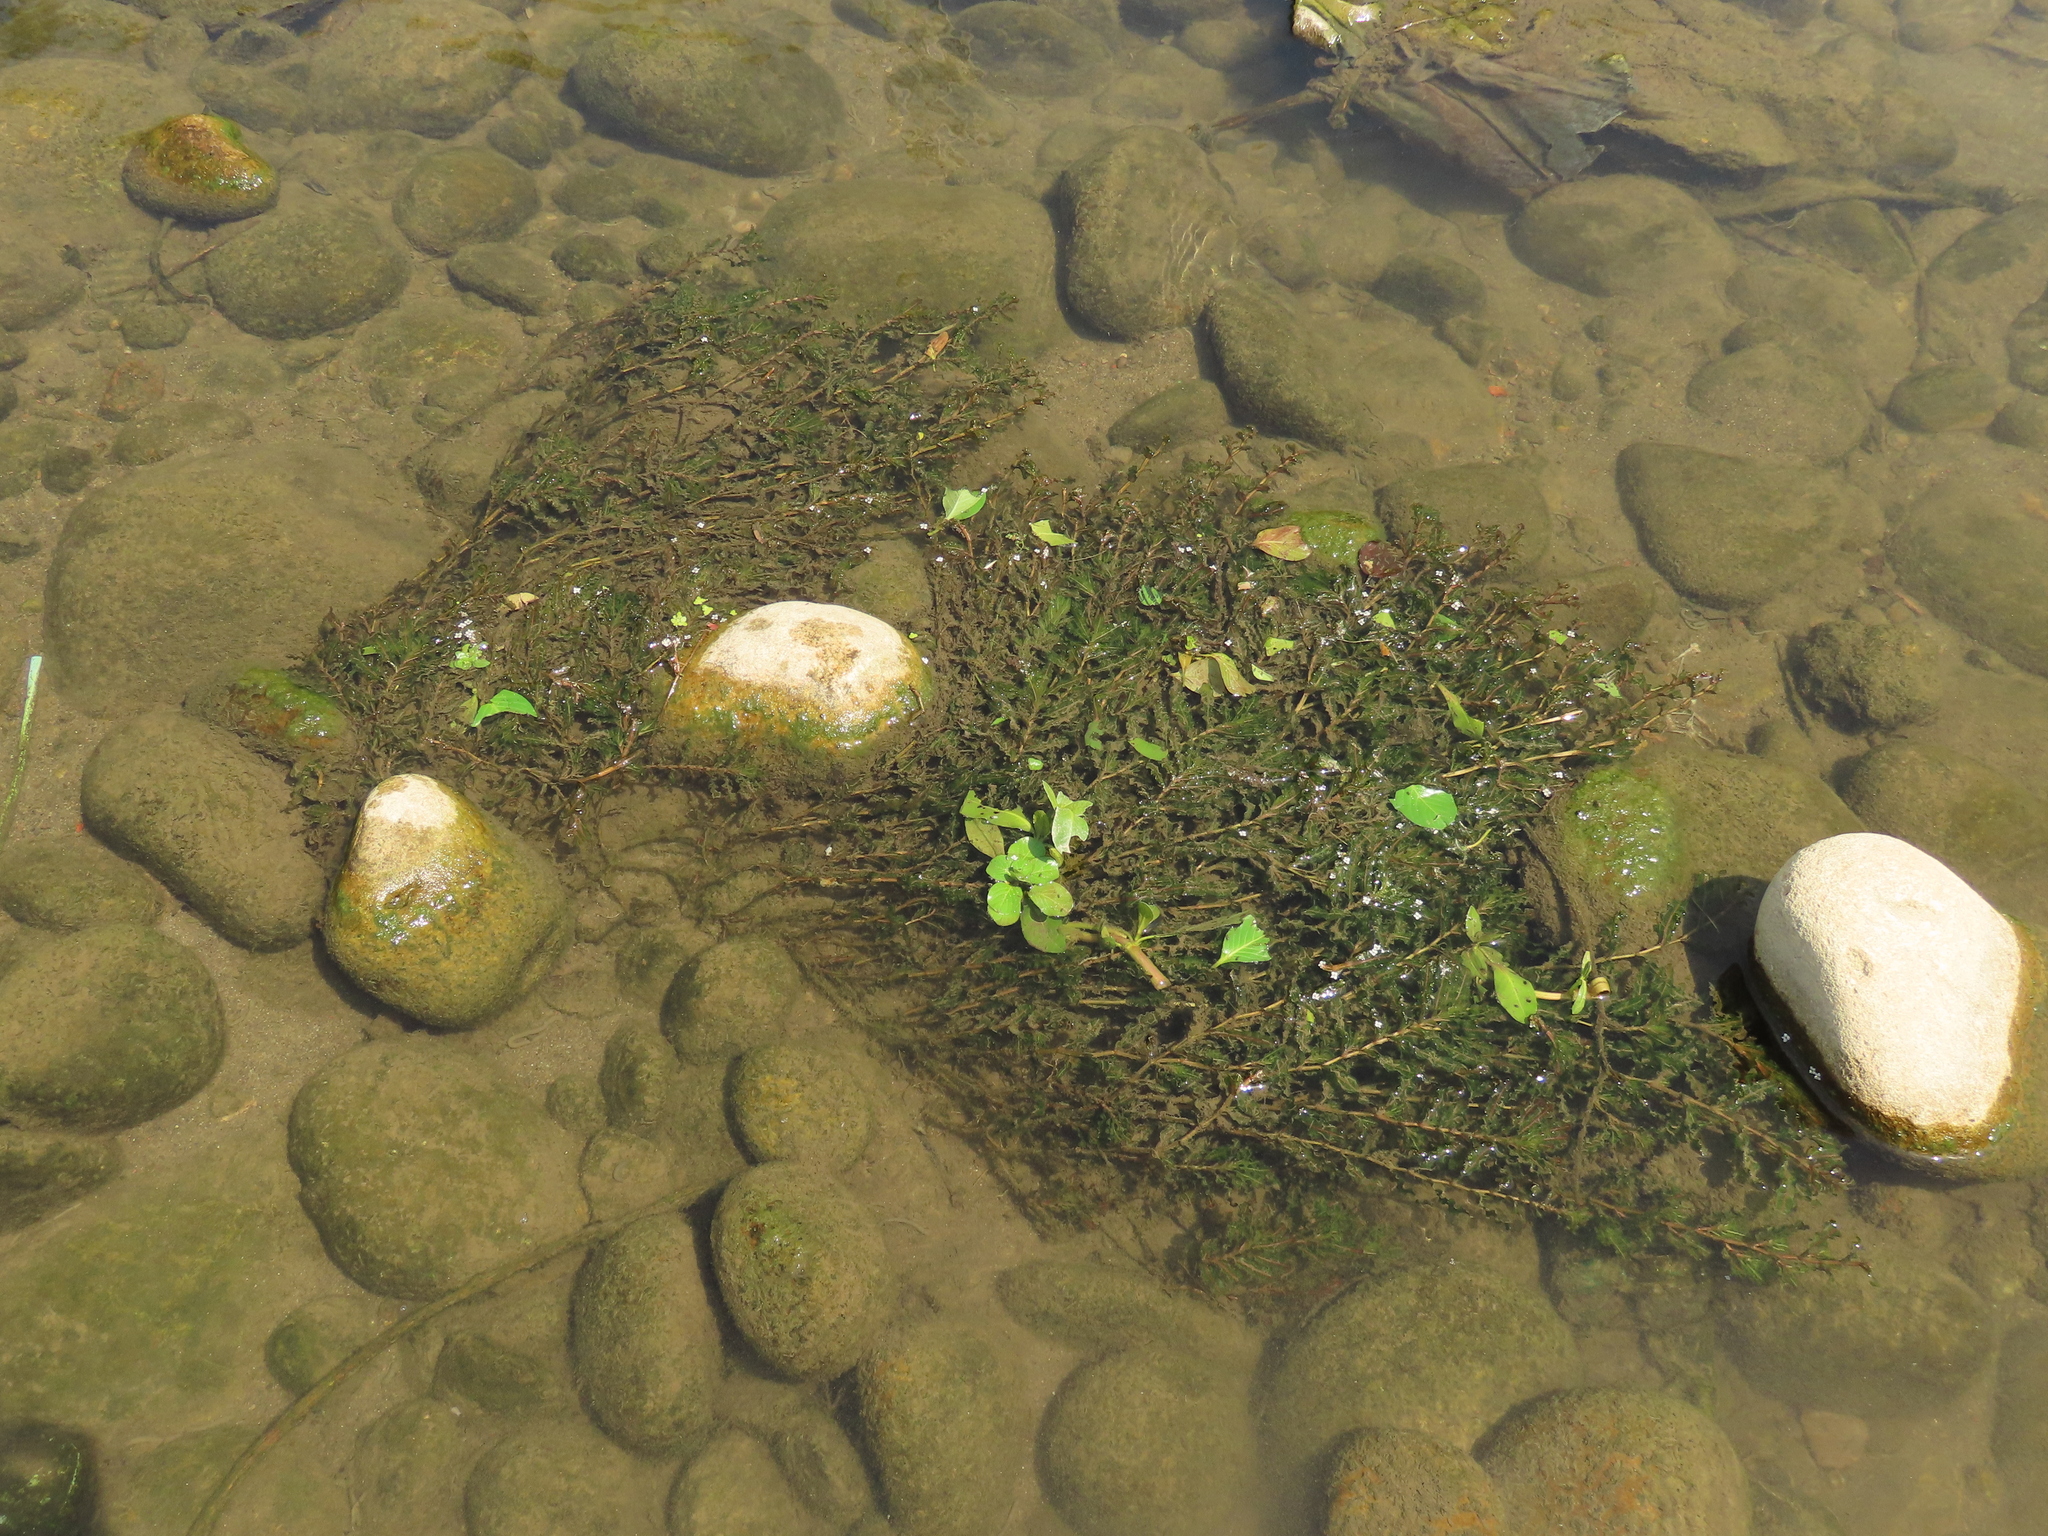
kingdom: Plantae
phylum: Tracheophyta
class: Liliopsida
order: Alismatales
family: Potamogetonaceae
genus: Potamogeton
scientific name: Potamogeton crispus
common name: Curled pondweed
